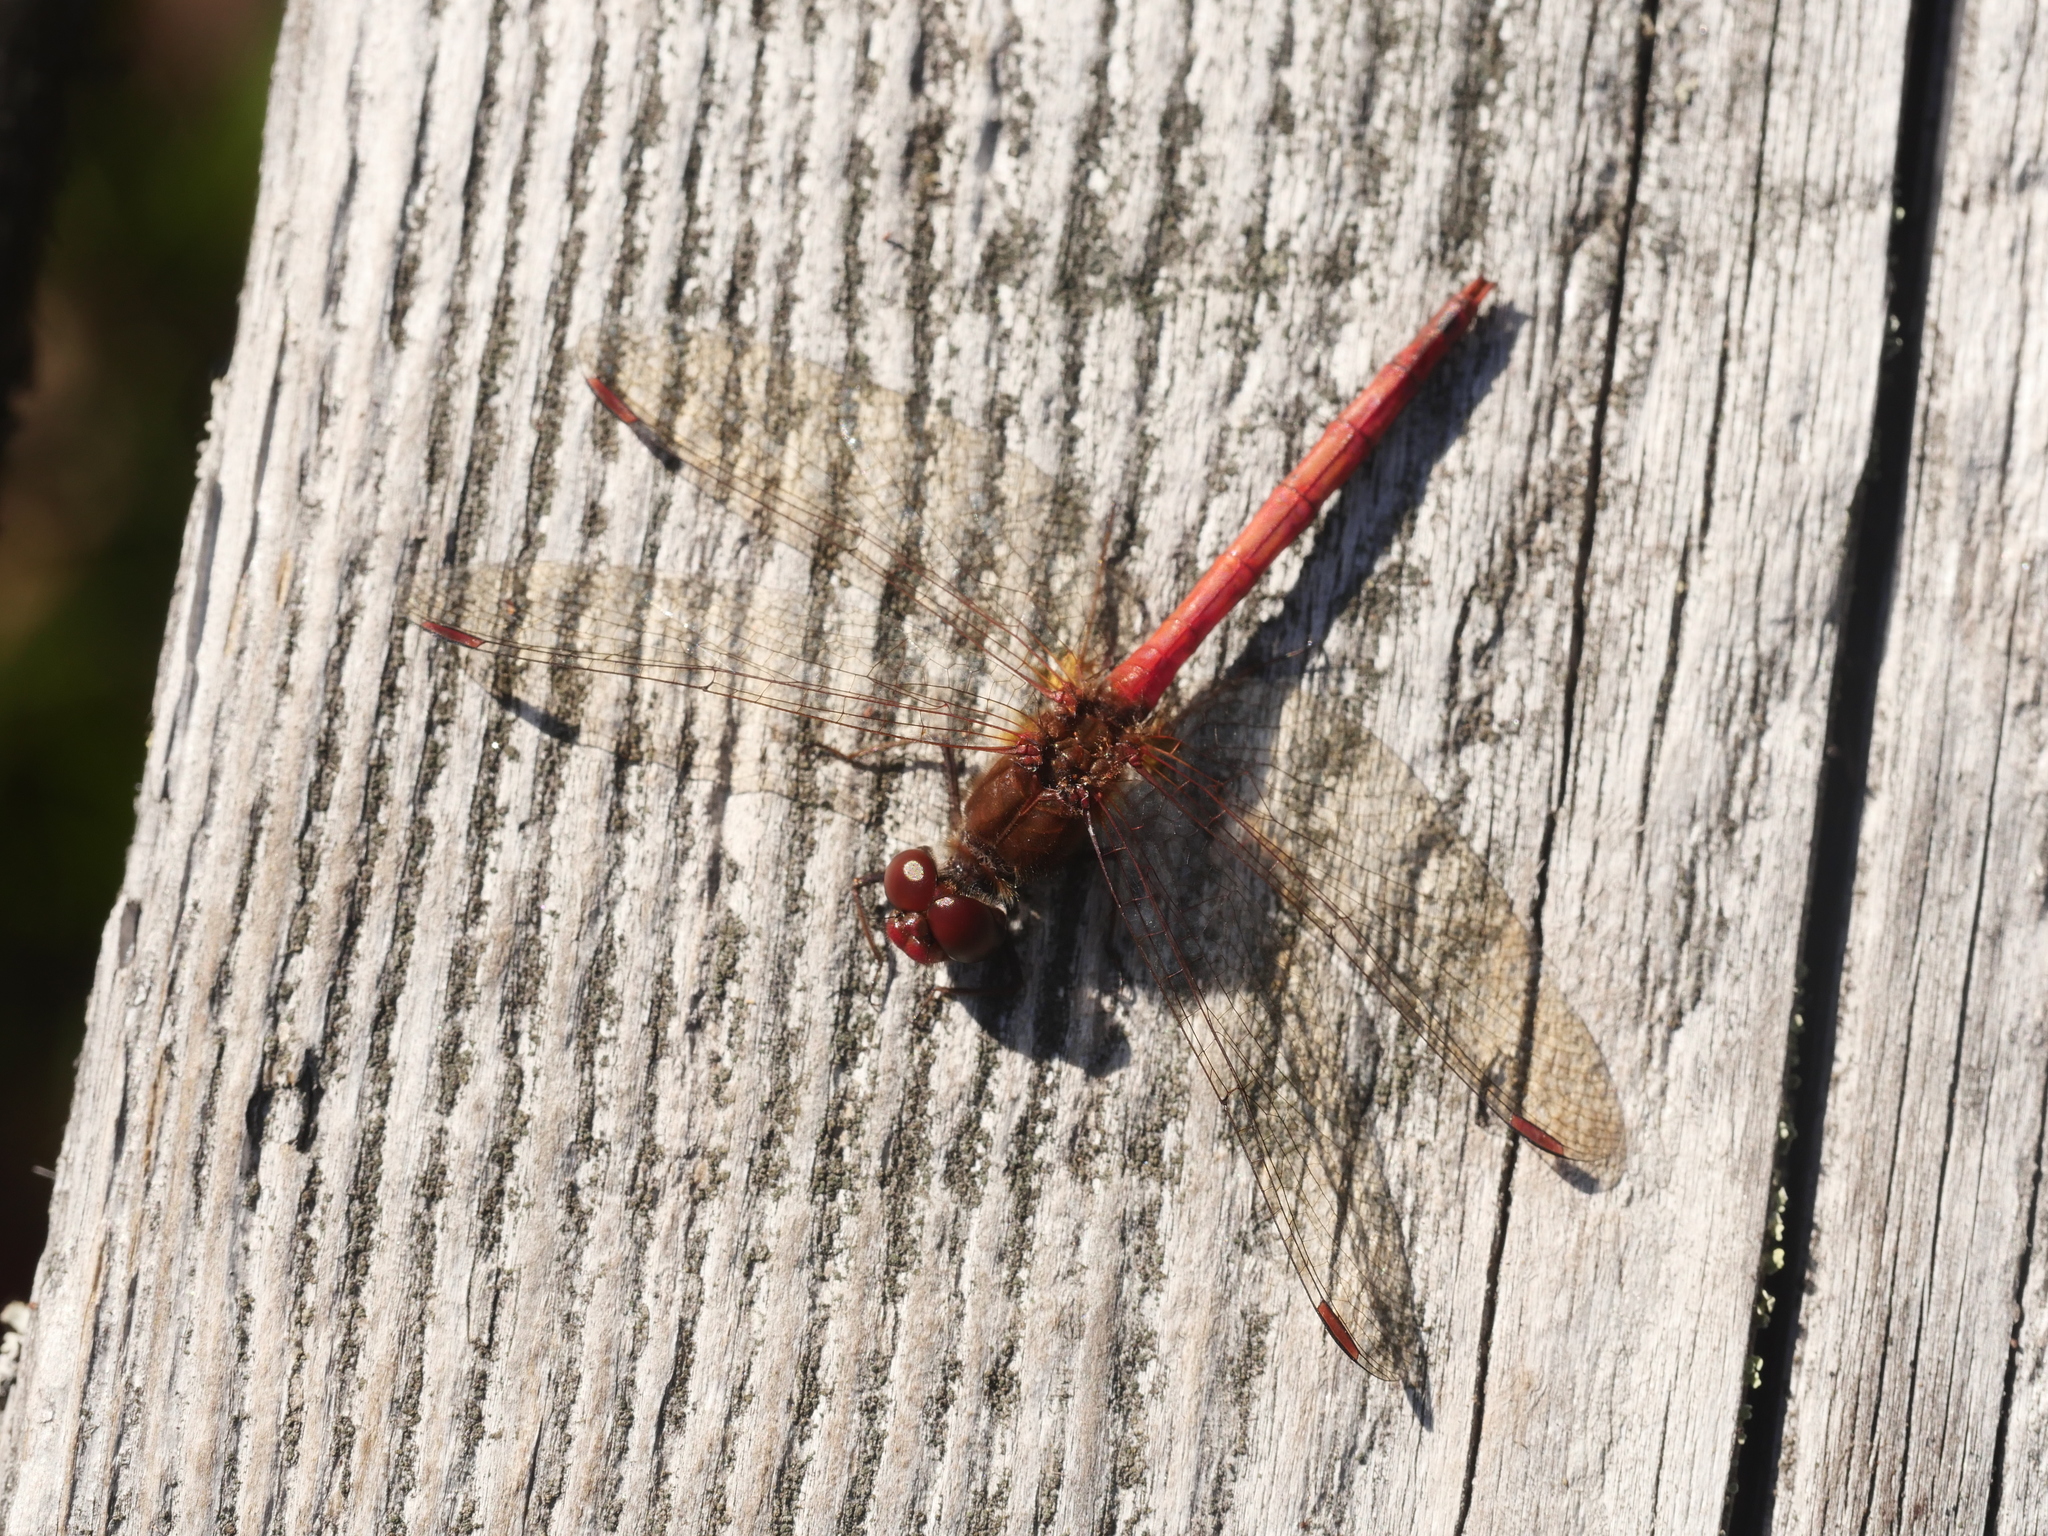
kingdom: Animalia
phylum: Arthropoda
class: Insecta
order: Odonata
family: Libellulidae
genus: Sympetrum
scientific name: Sympetrum vicinum
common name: Autumn meadowhawk
